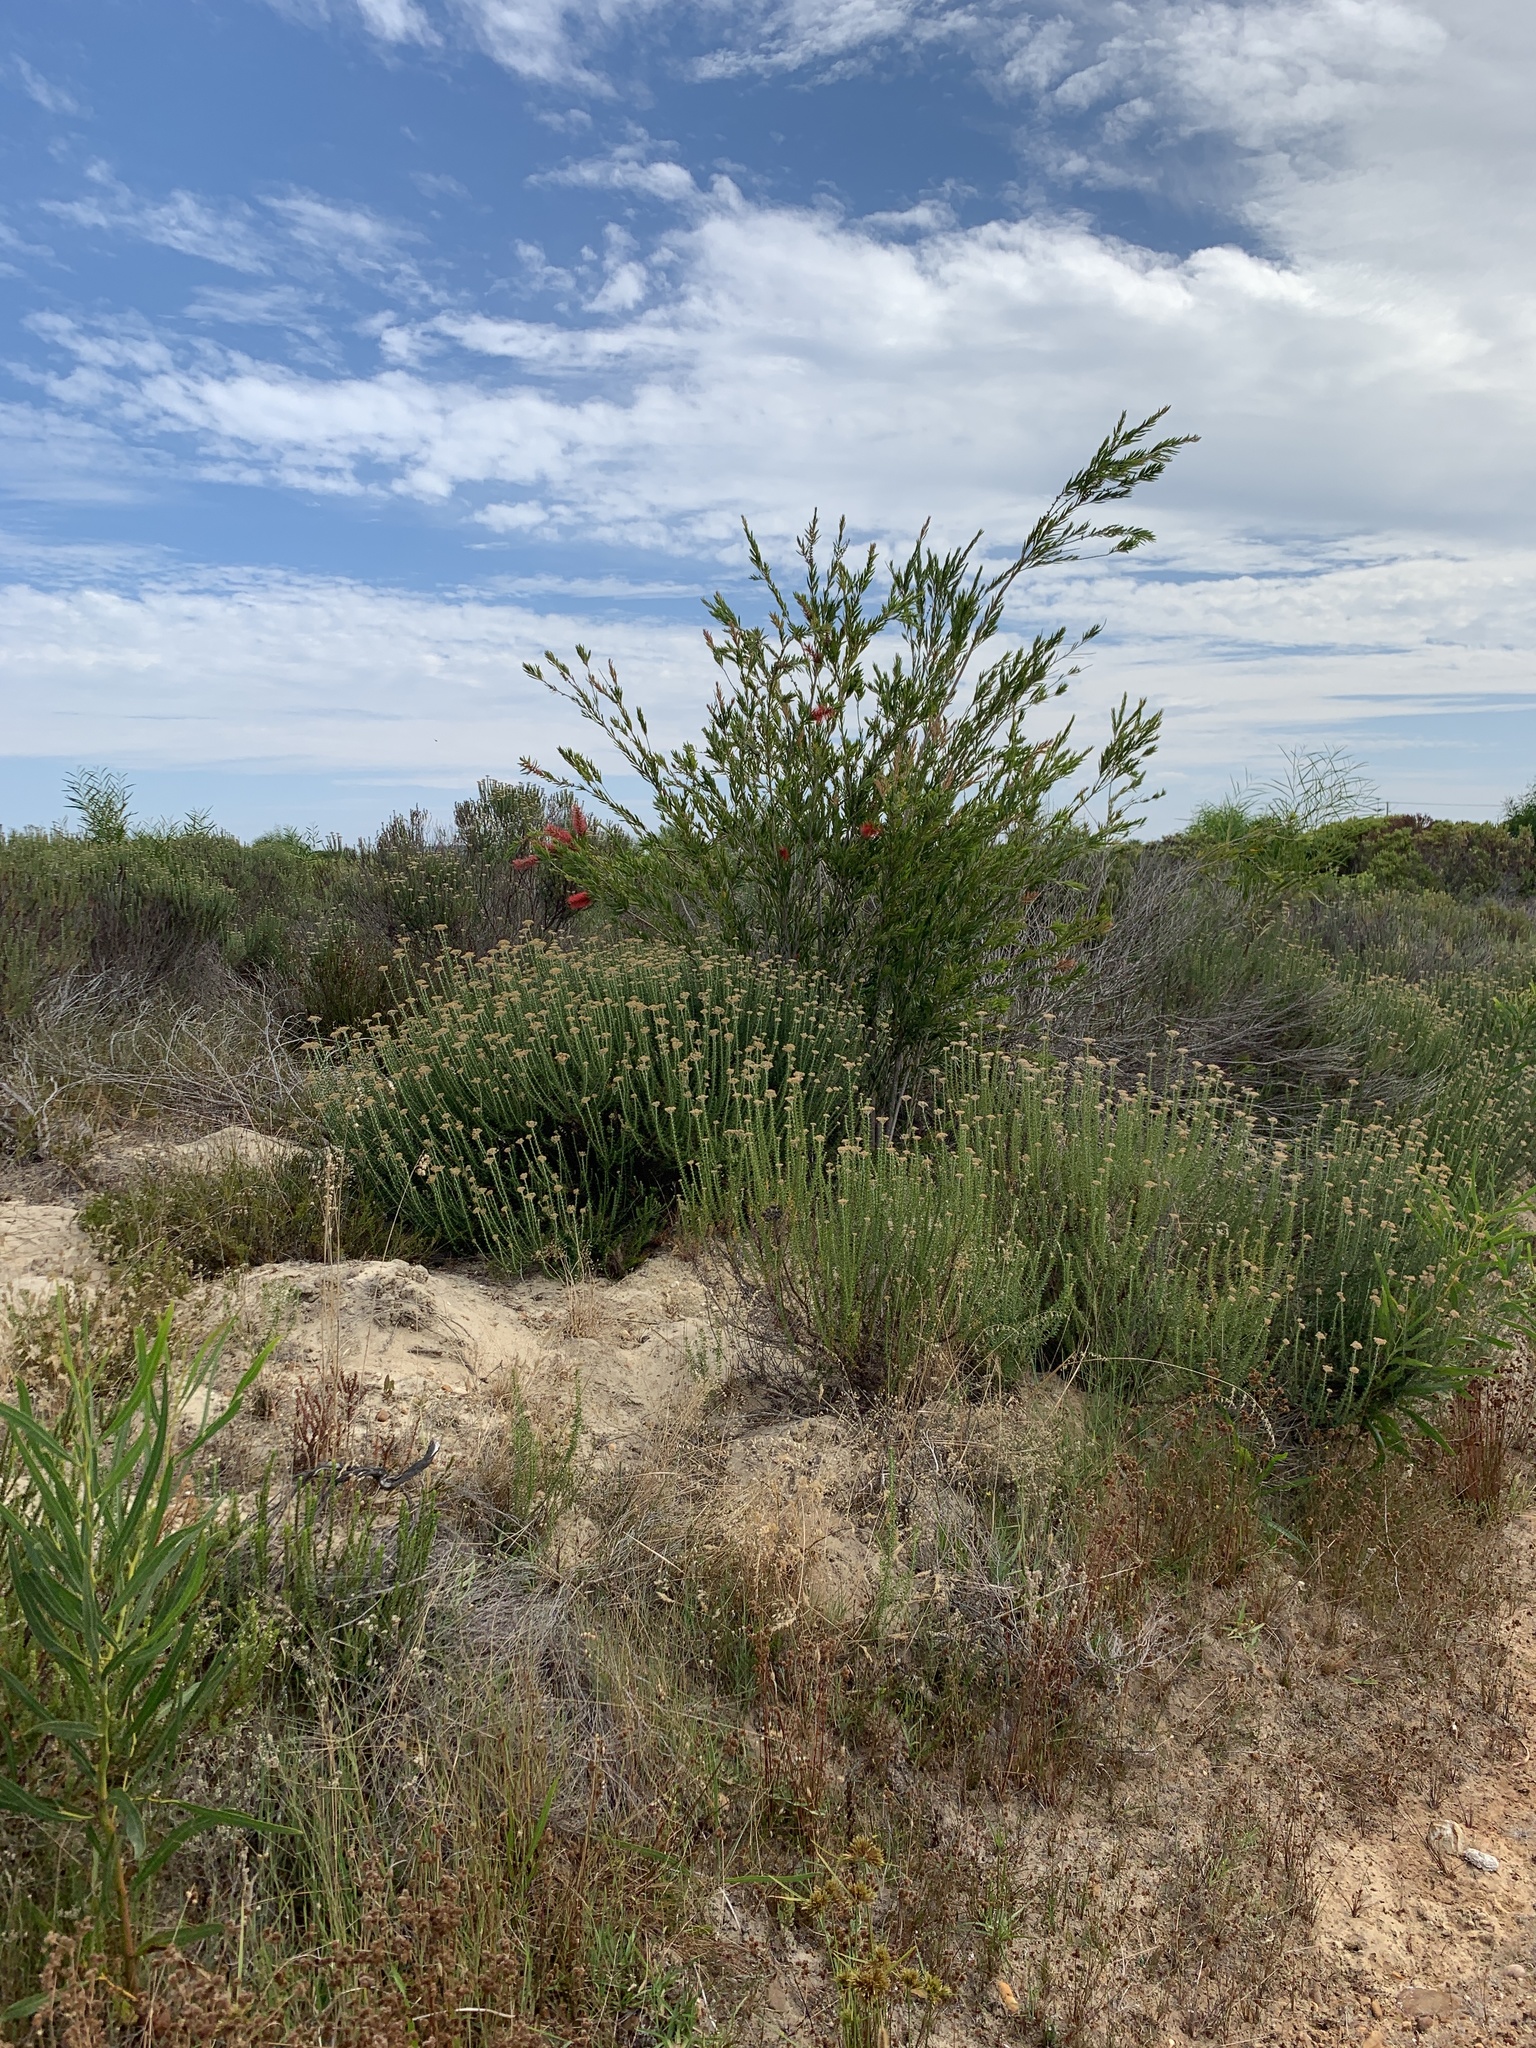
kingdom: Plantae
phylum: Tracheophyta
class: Magnoliopsida
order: Myrtales
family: Myrtaceae
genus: Callistemon
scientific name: Callistemon viminalis
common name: Drooping bottlebrush
